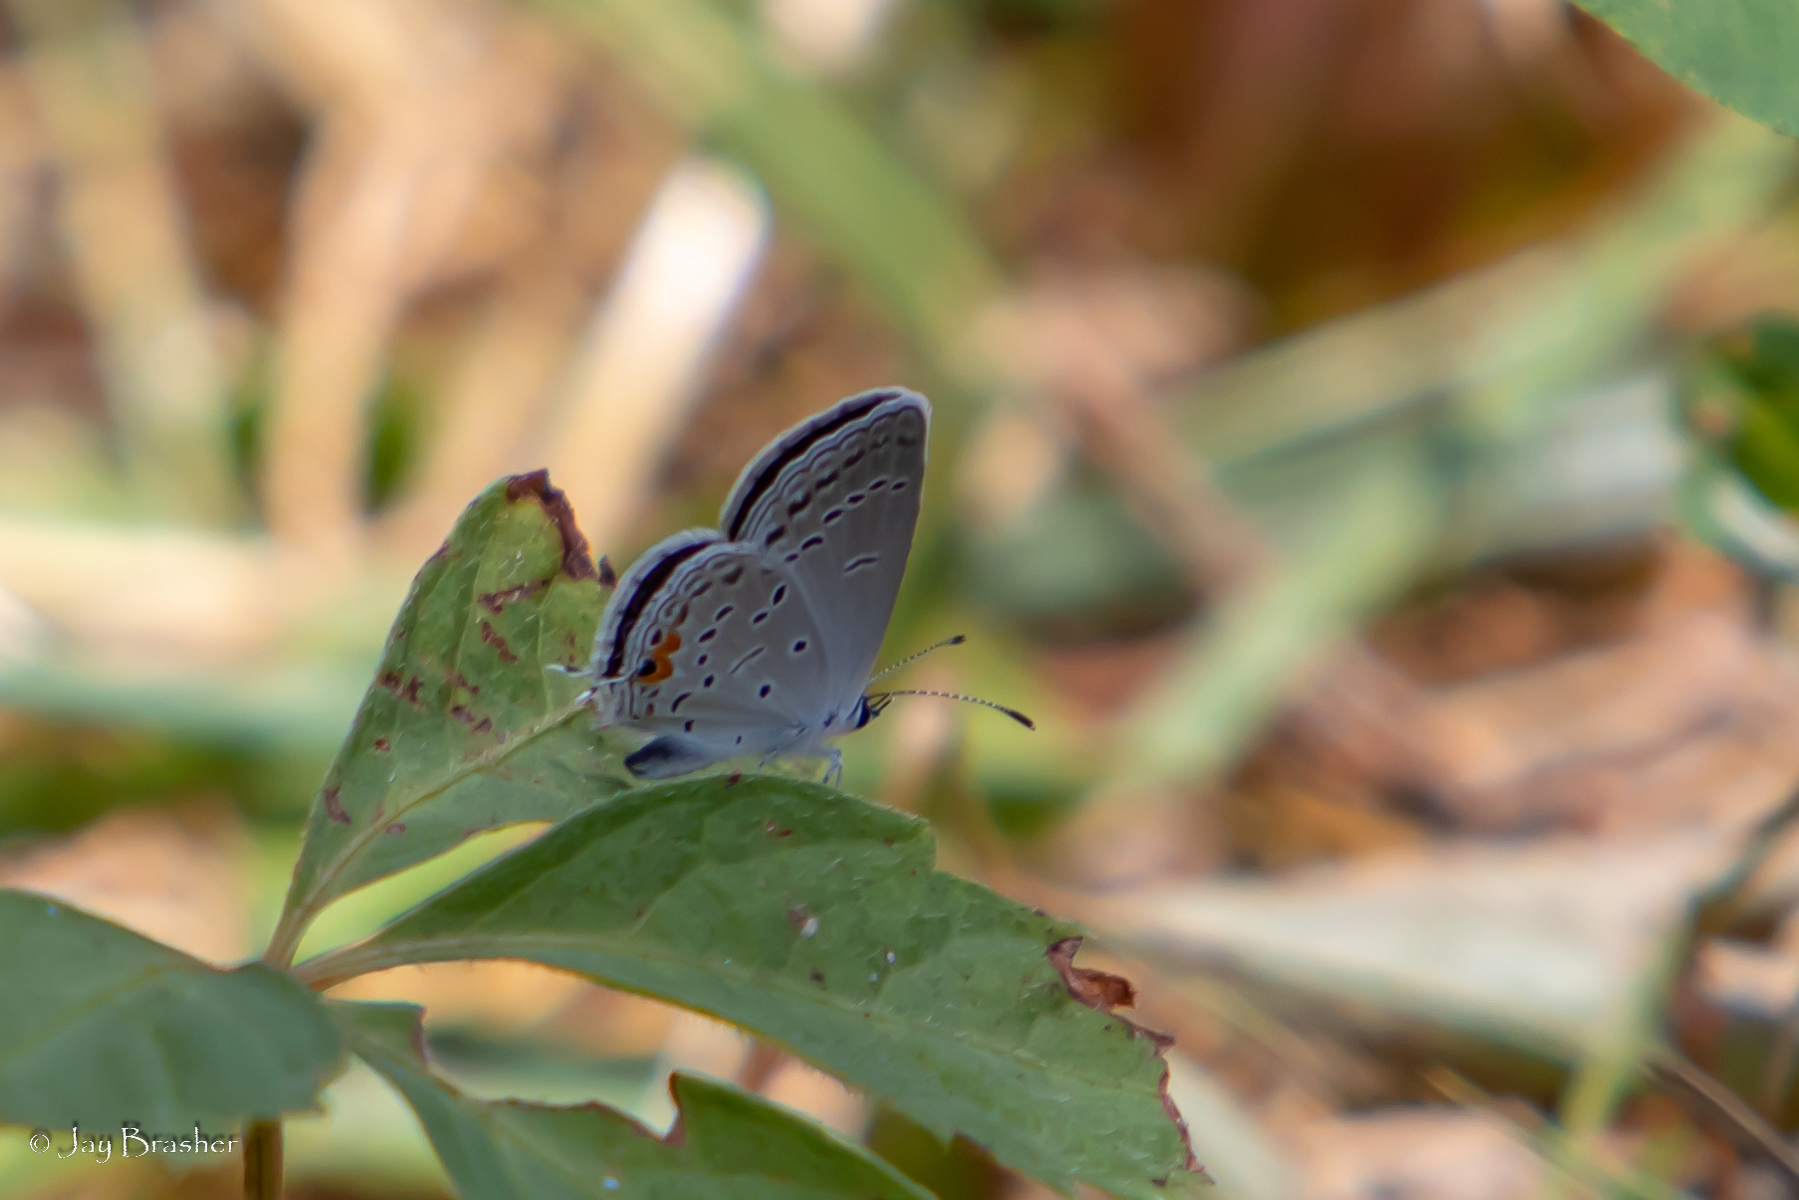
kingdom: Animalia
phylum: Arthropoda
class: Insecta
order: Lepidoptera
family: Lycaenidae
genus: Elkalyce
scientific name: Elkalyce comyntas
